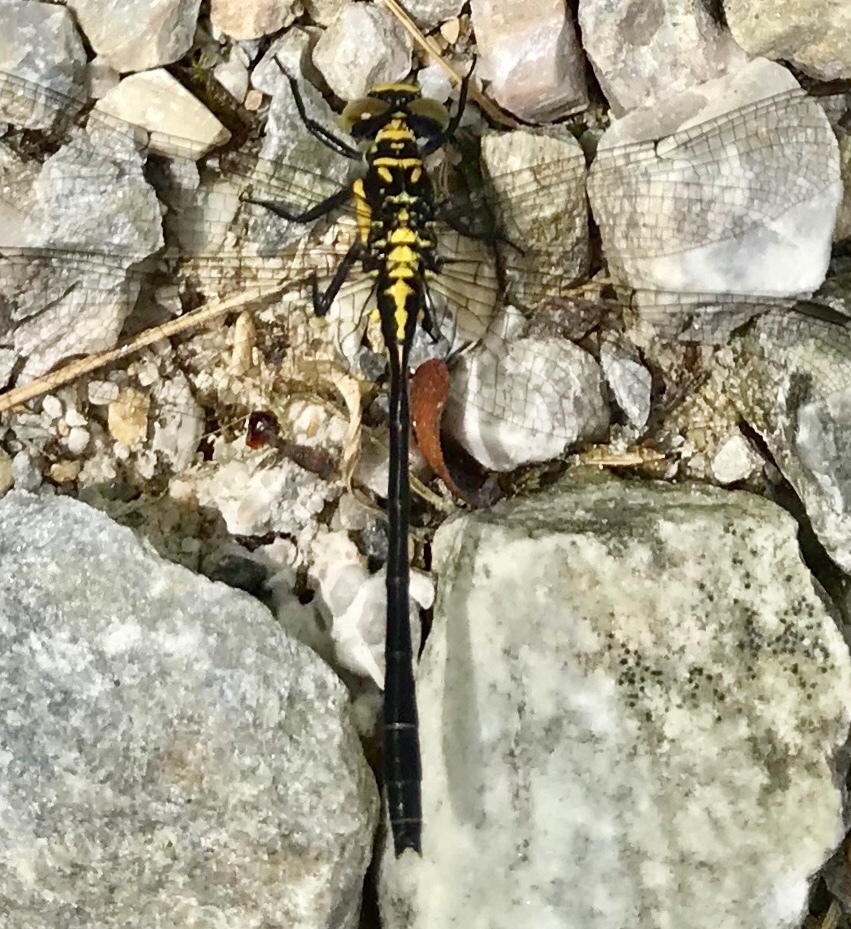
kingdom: Animalia
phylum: Arthropoda
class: Insecta
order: Odonata
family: Gomphidae
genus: Lanthus
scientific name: Lanthus vernalis
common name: Southern pygmy clubtail
